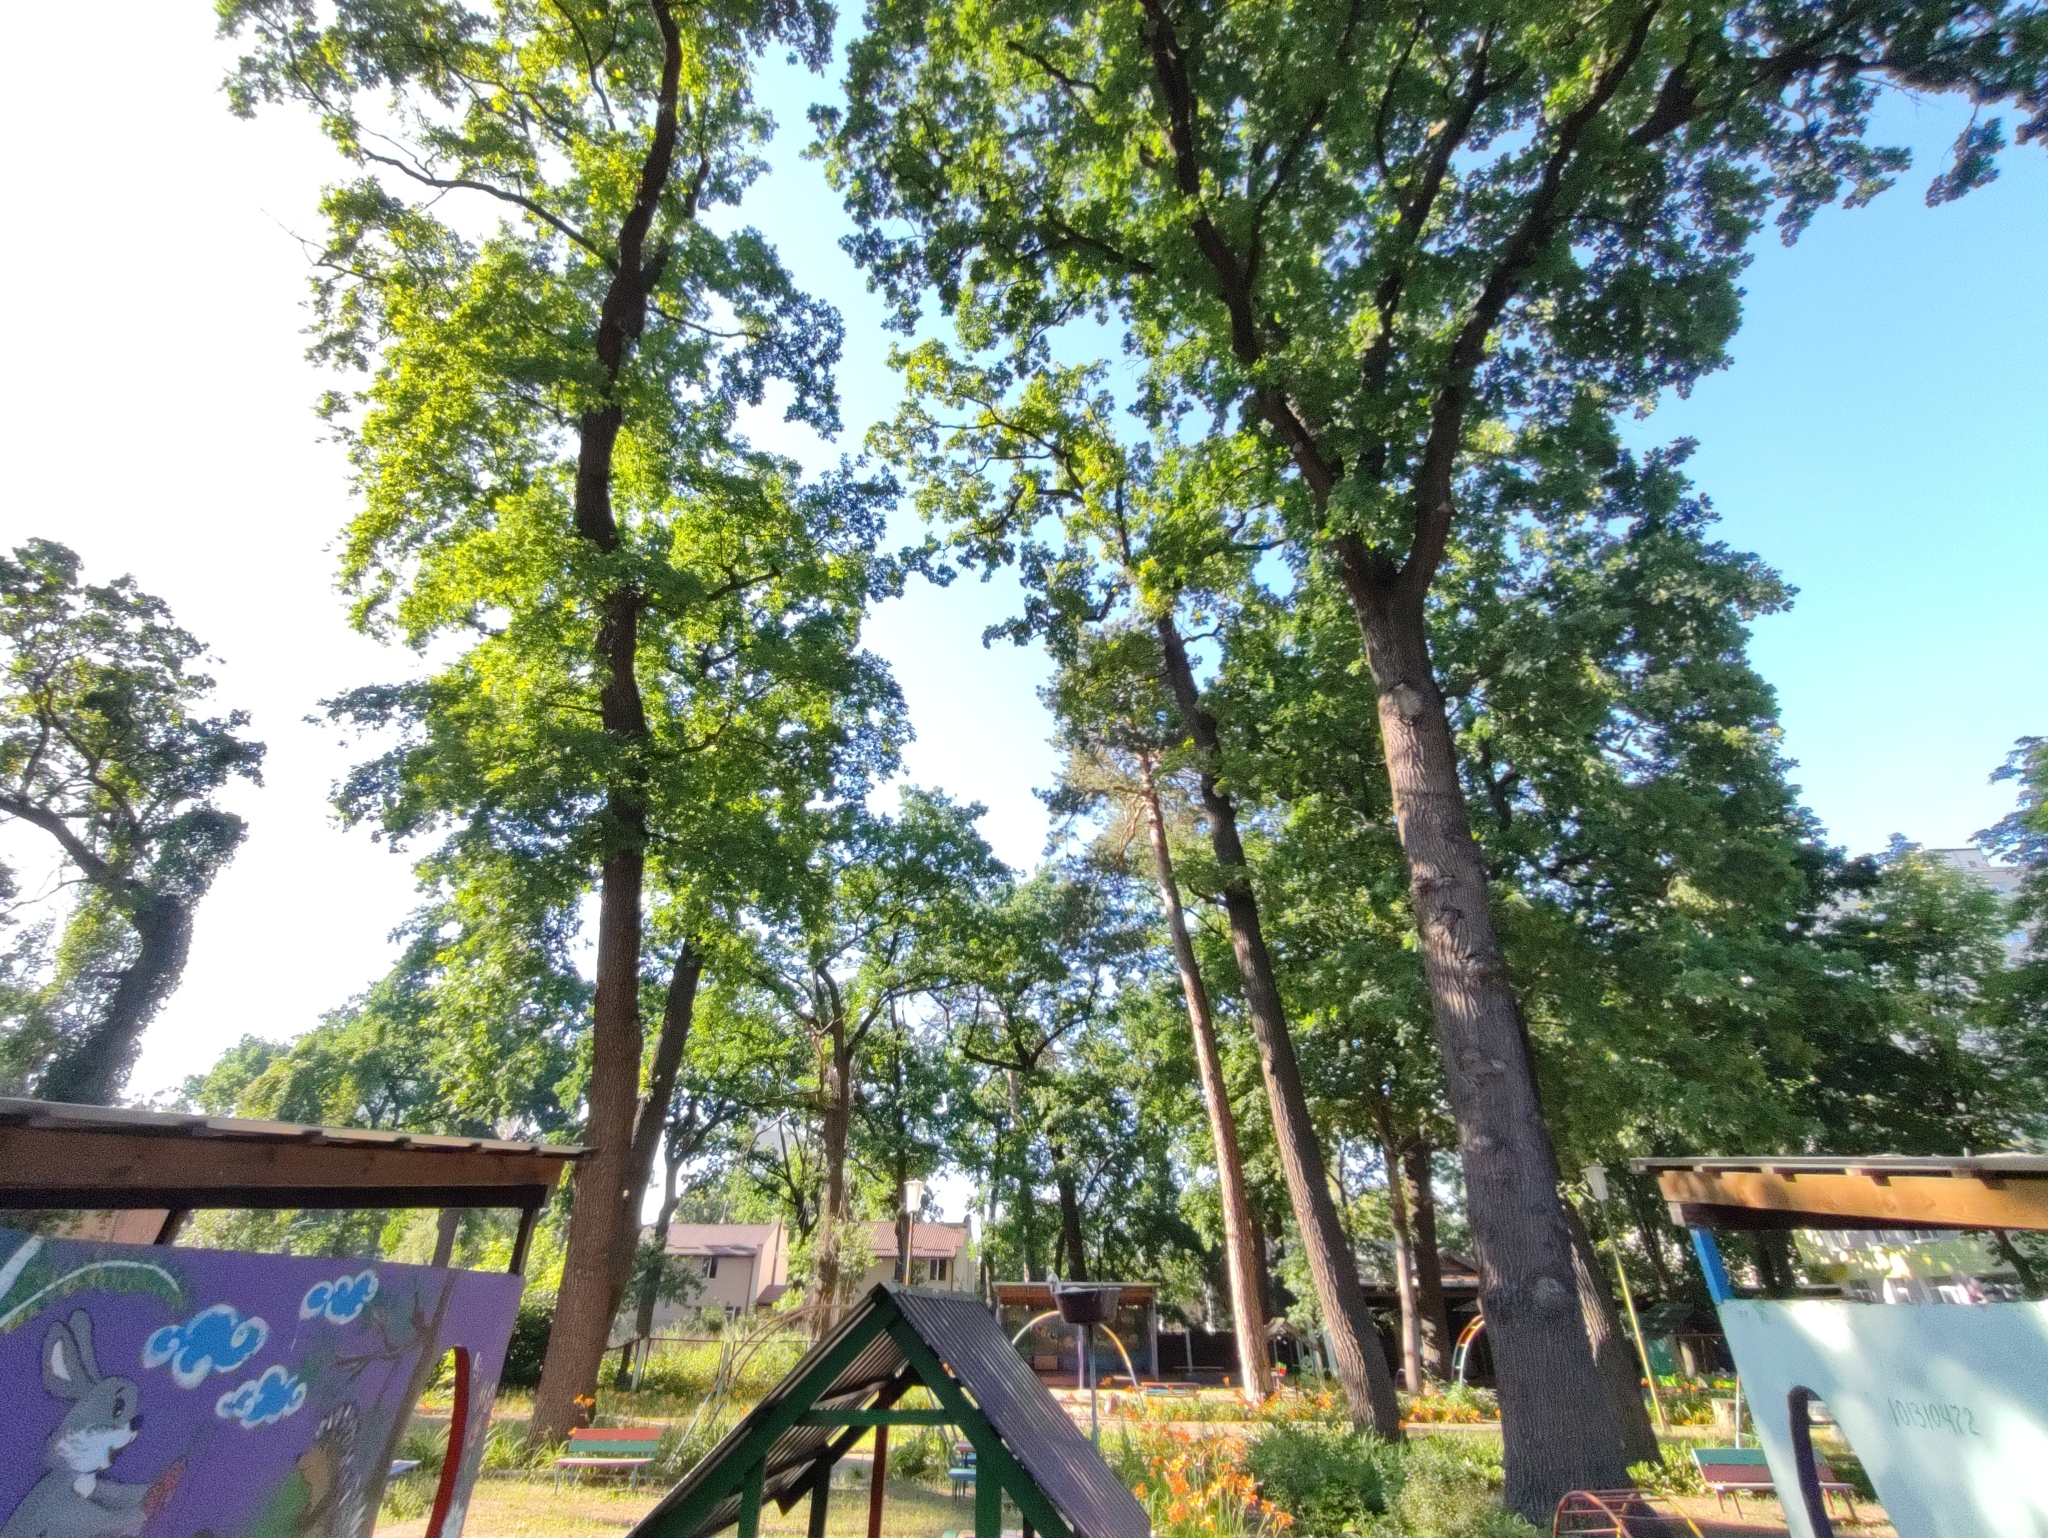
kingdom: Plantae
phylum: Tracheophyta
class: Magnoliopsida
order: Fagales
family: Fagaceae
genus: Quercus
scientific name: Quercus robur
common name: Pedunculate oak
